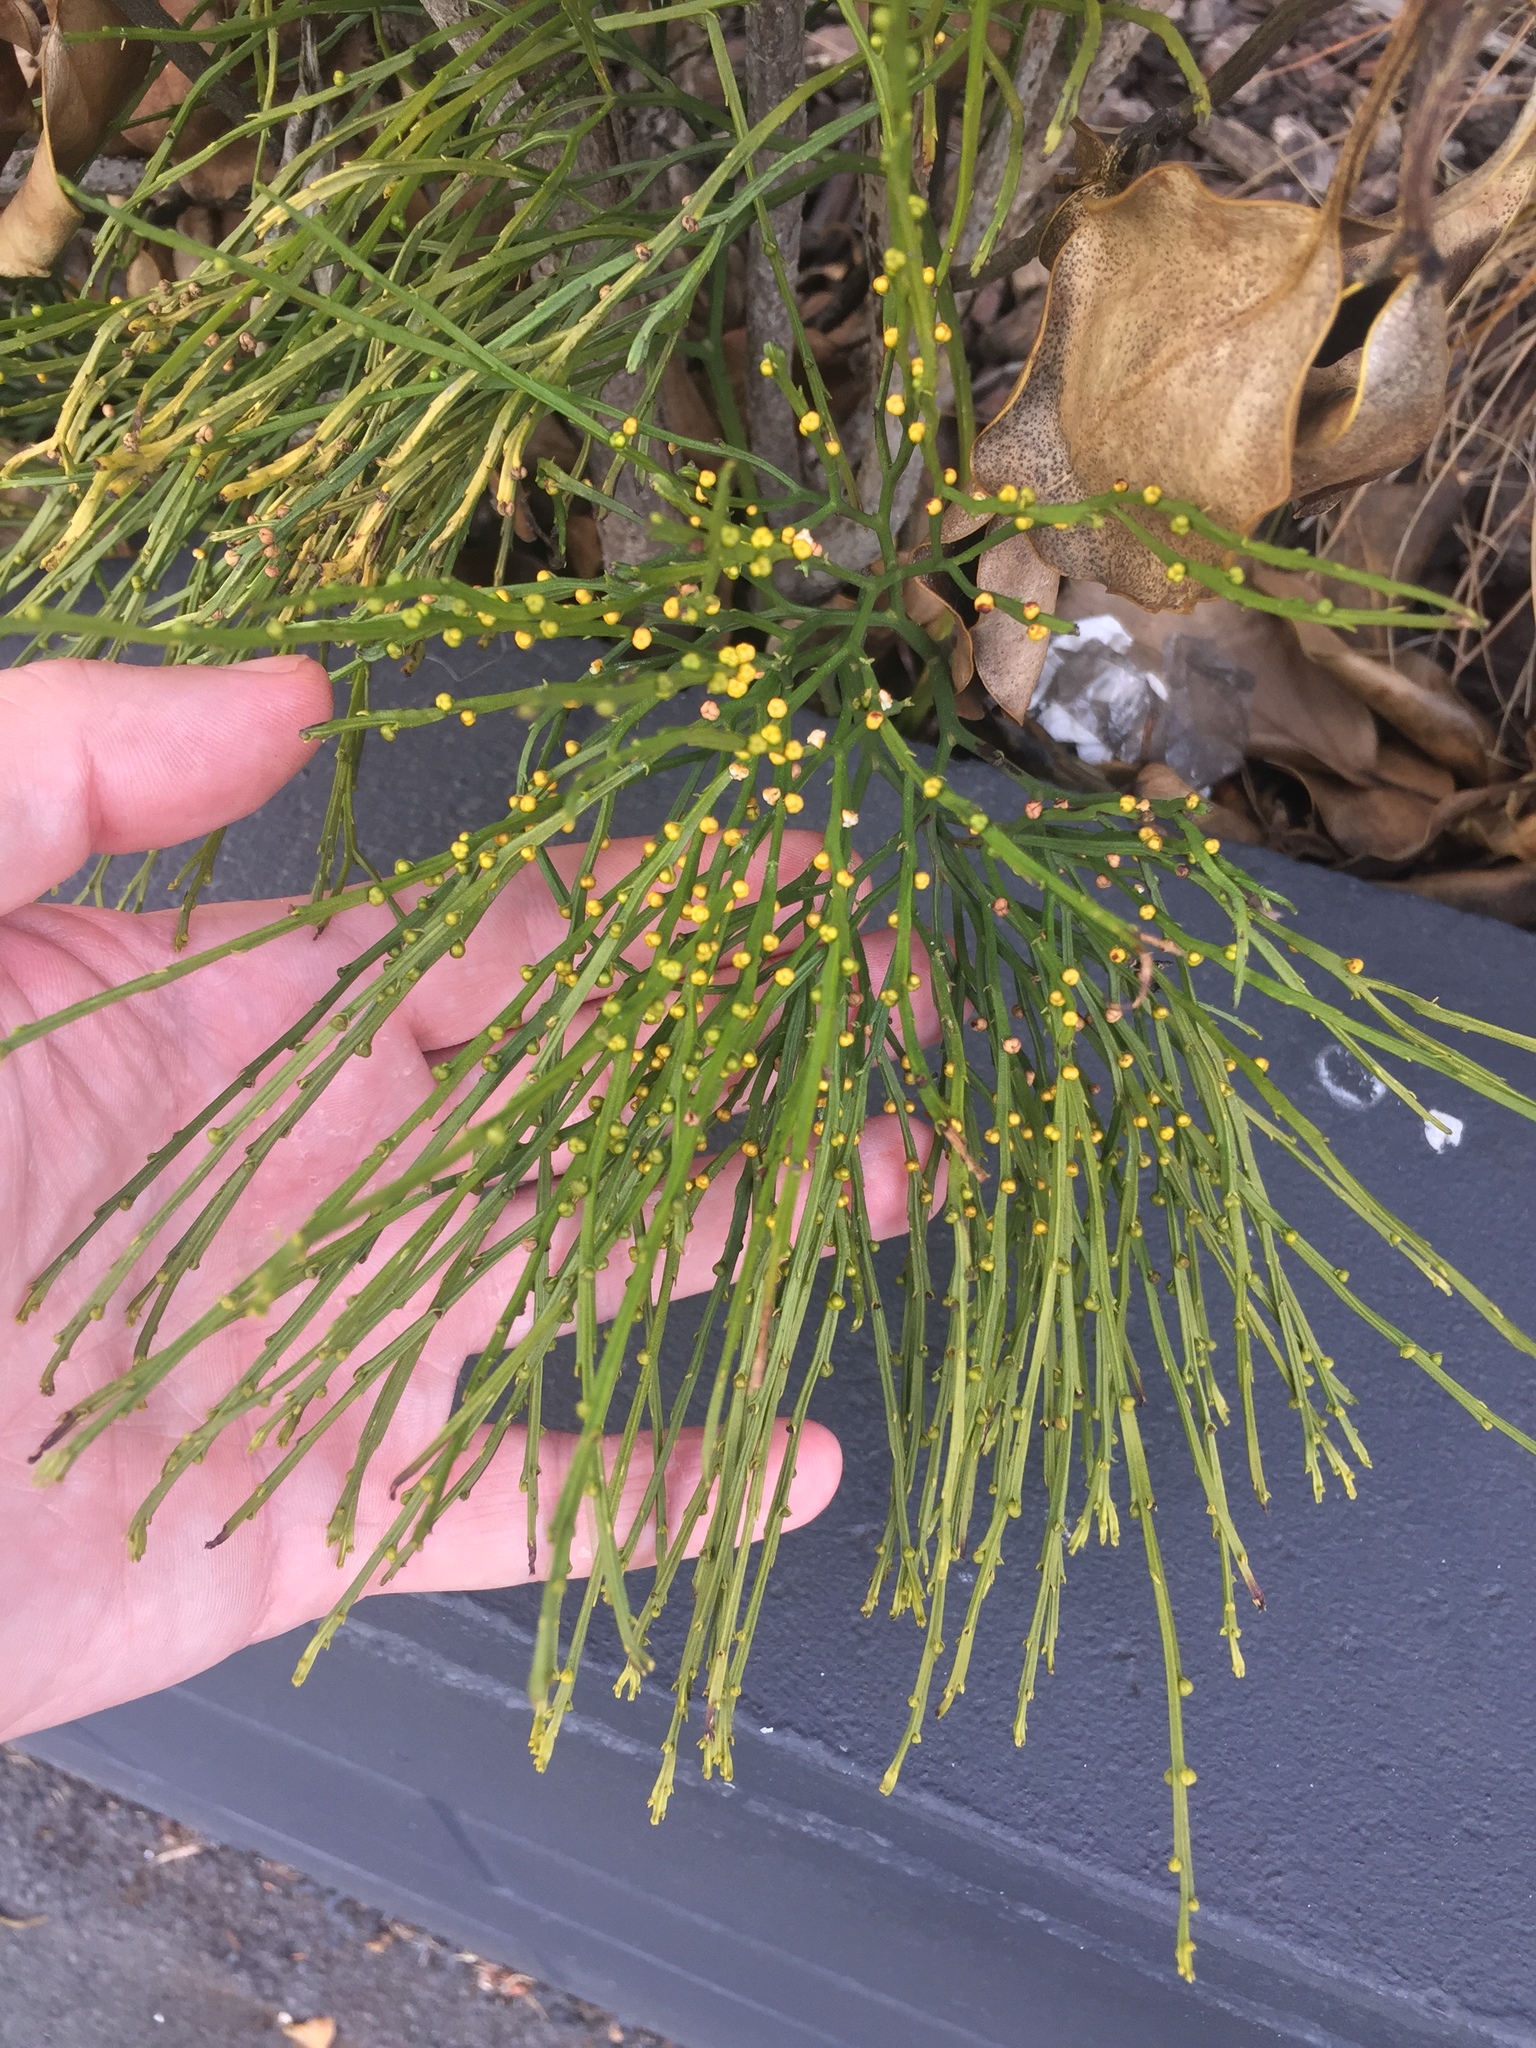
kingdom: Plantae
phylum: Tracheophyta
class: Polypodiopsida
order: Psilotales
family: Psilotaceae
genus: Psilotum
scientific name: Psilotum nudum
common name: Skeleton fork fern
